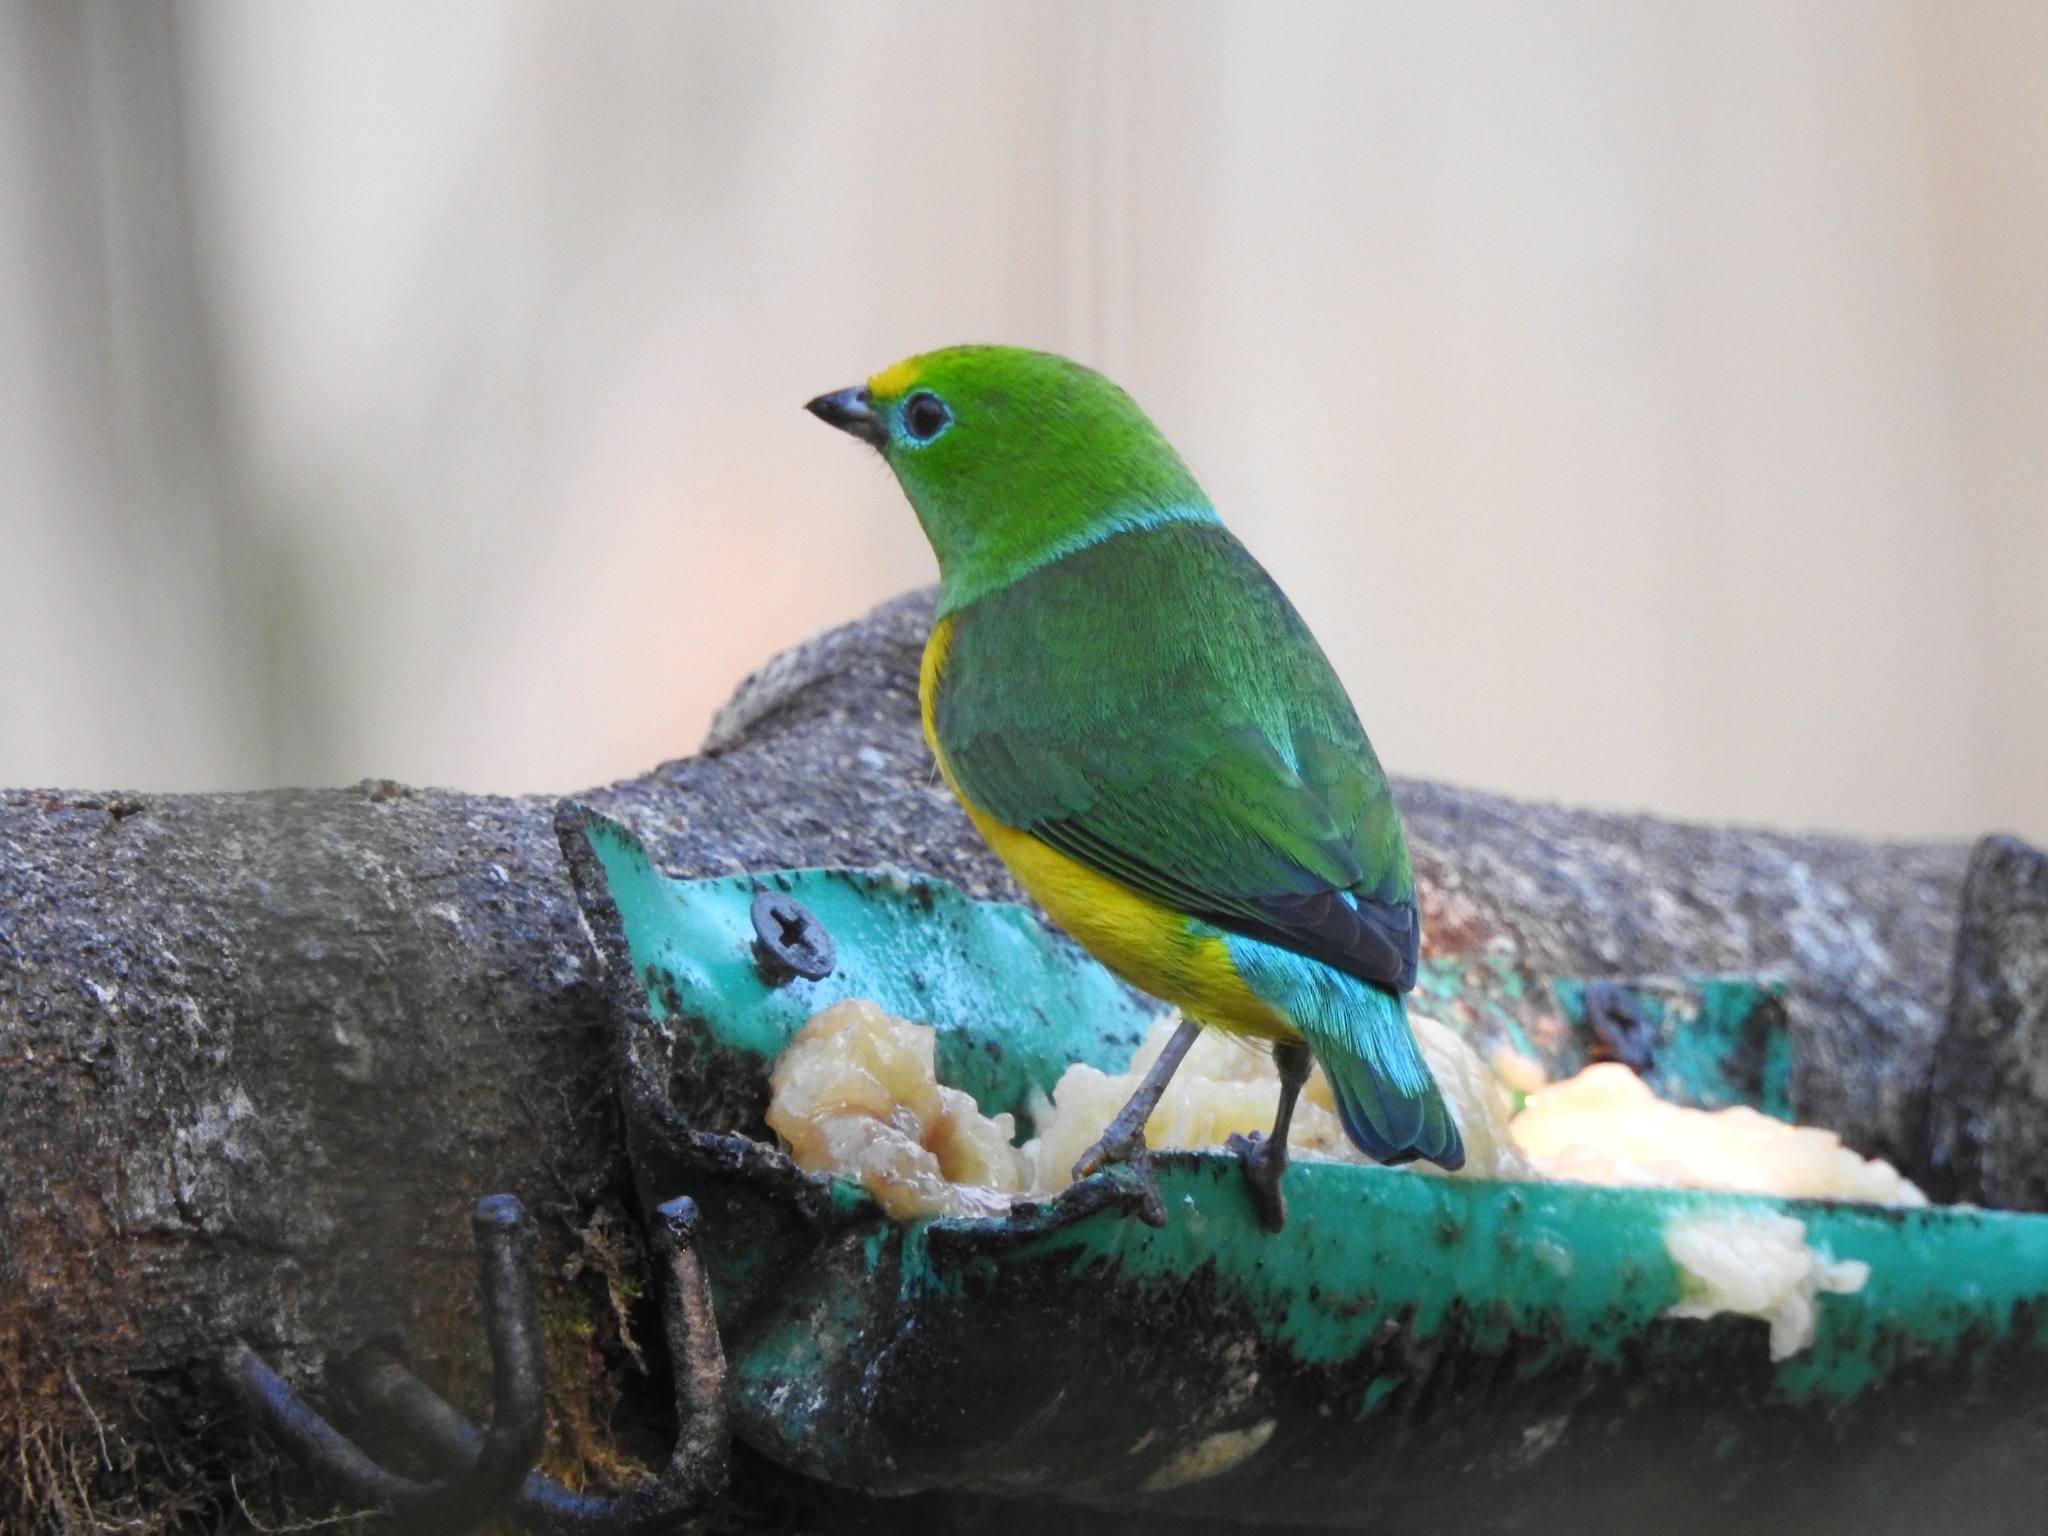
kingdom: Animalia
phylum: Chordata
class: Aves
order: Passeriformes
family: Fringillidae
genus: Chlorophonia
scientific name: Chlorophonia cyanea
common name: Blue-naped chlorophonia
